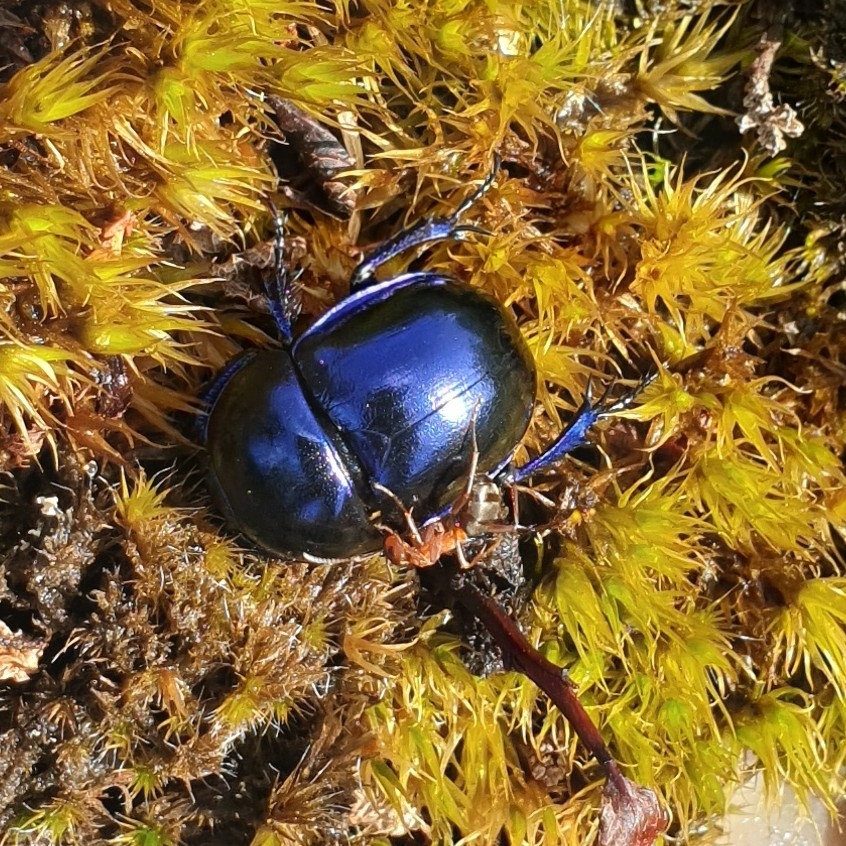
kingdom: Animalia
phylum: Arthropoda
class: Insecta
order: Coleoptera
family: Geotrupidae
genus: Trypocopris
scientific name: Trypocopris vernalis
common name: Spring dumbledor
